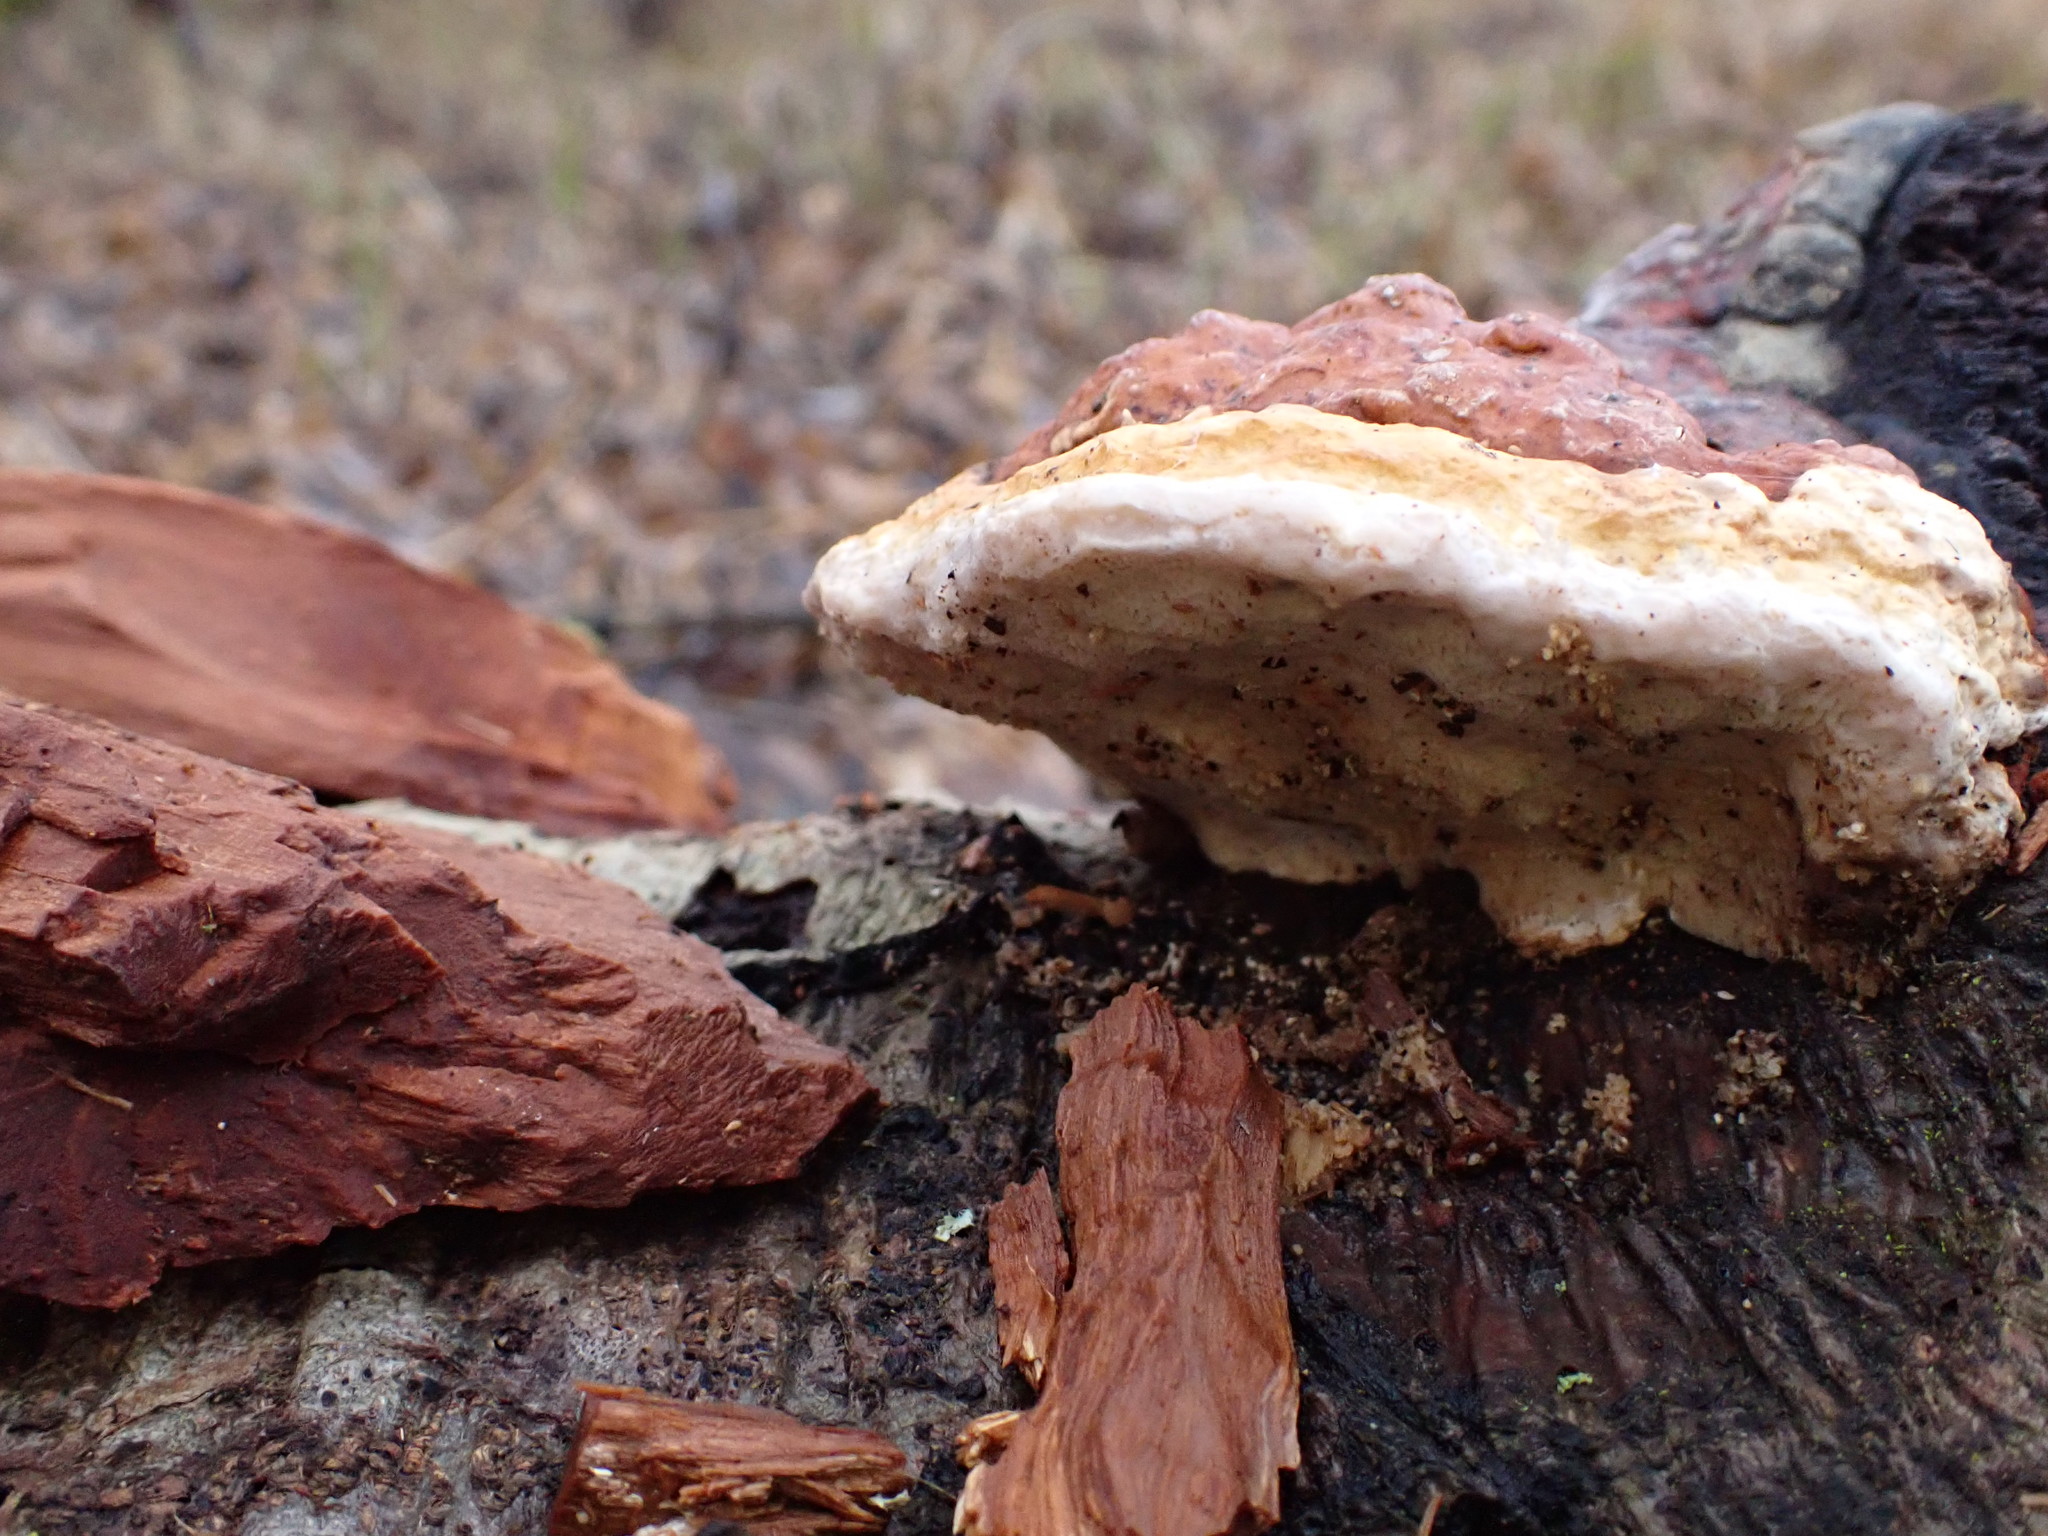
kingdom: Fungi
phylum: Basidiomycota
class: Agaricomycetes
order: Polyporales
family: Fomitopsidaceae
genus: Fomitopsis
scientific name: Fomitopsis pinicola
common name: Red-belted bracket
